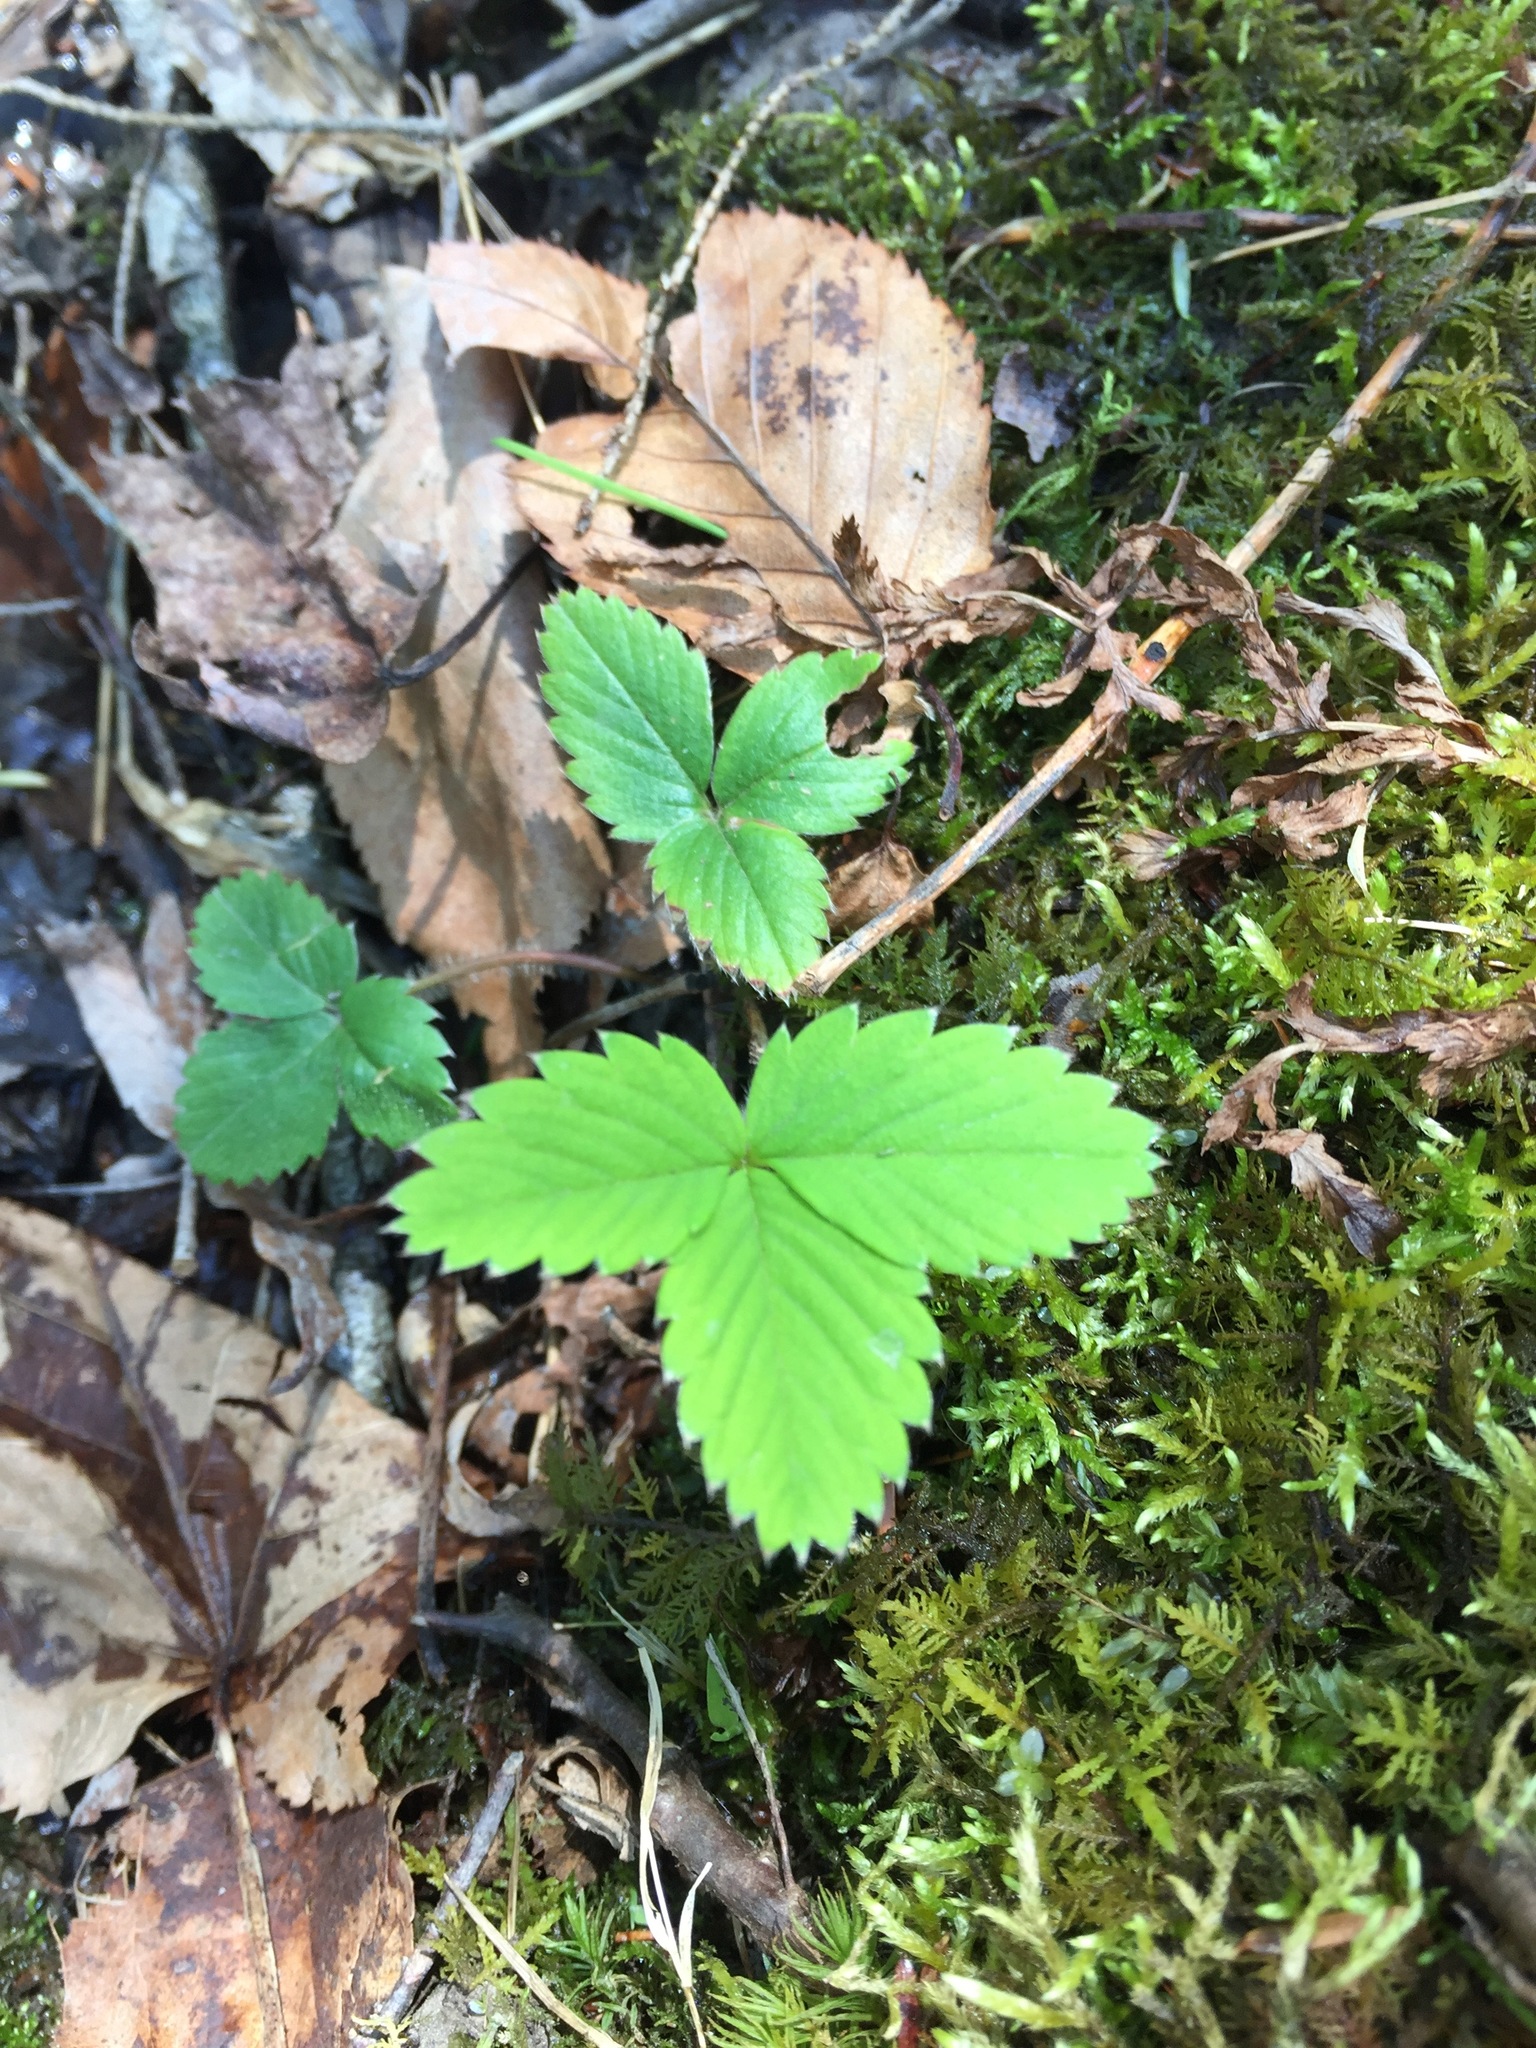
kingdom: Plantae
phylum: Tracheophyta
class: Magnoliopsida
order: Rosales
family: Rosaceae
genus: Fragaria
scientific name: Fragaria virginiana
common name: Thickleaved wild strawberry
